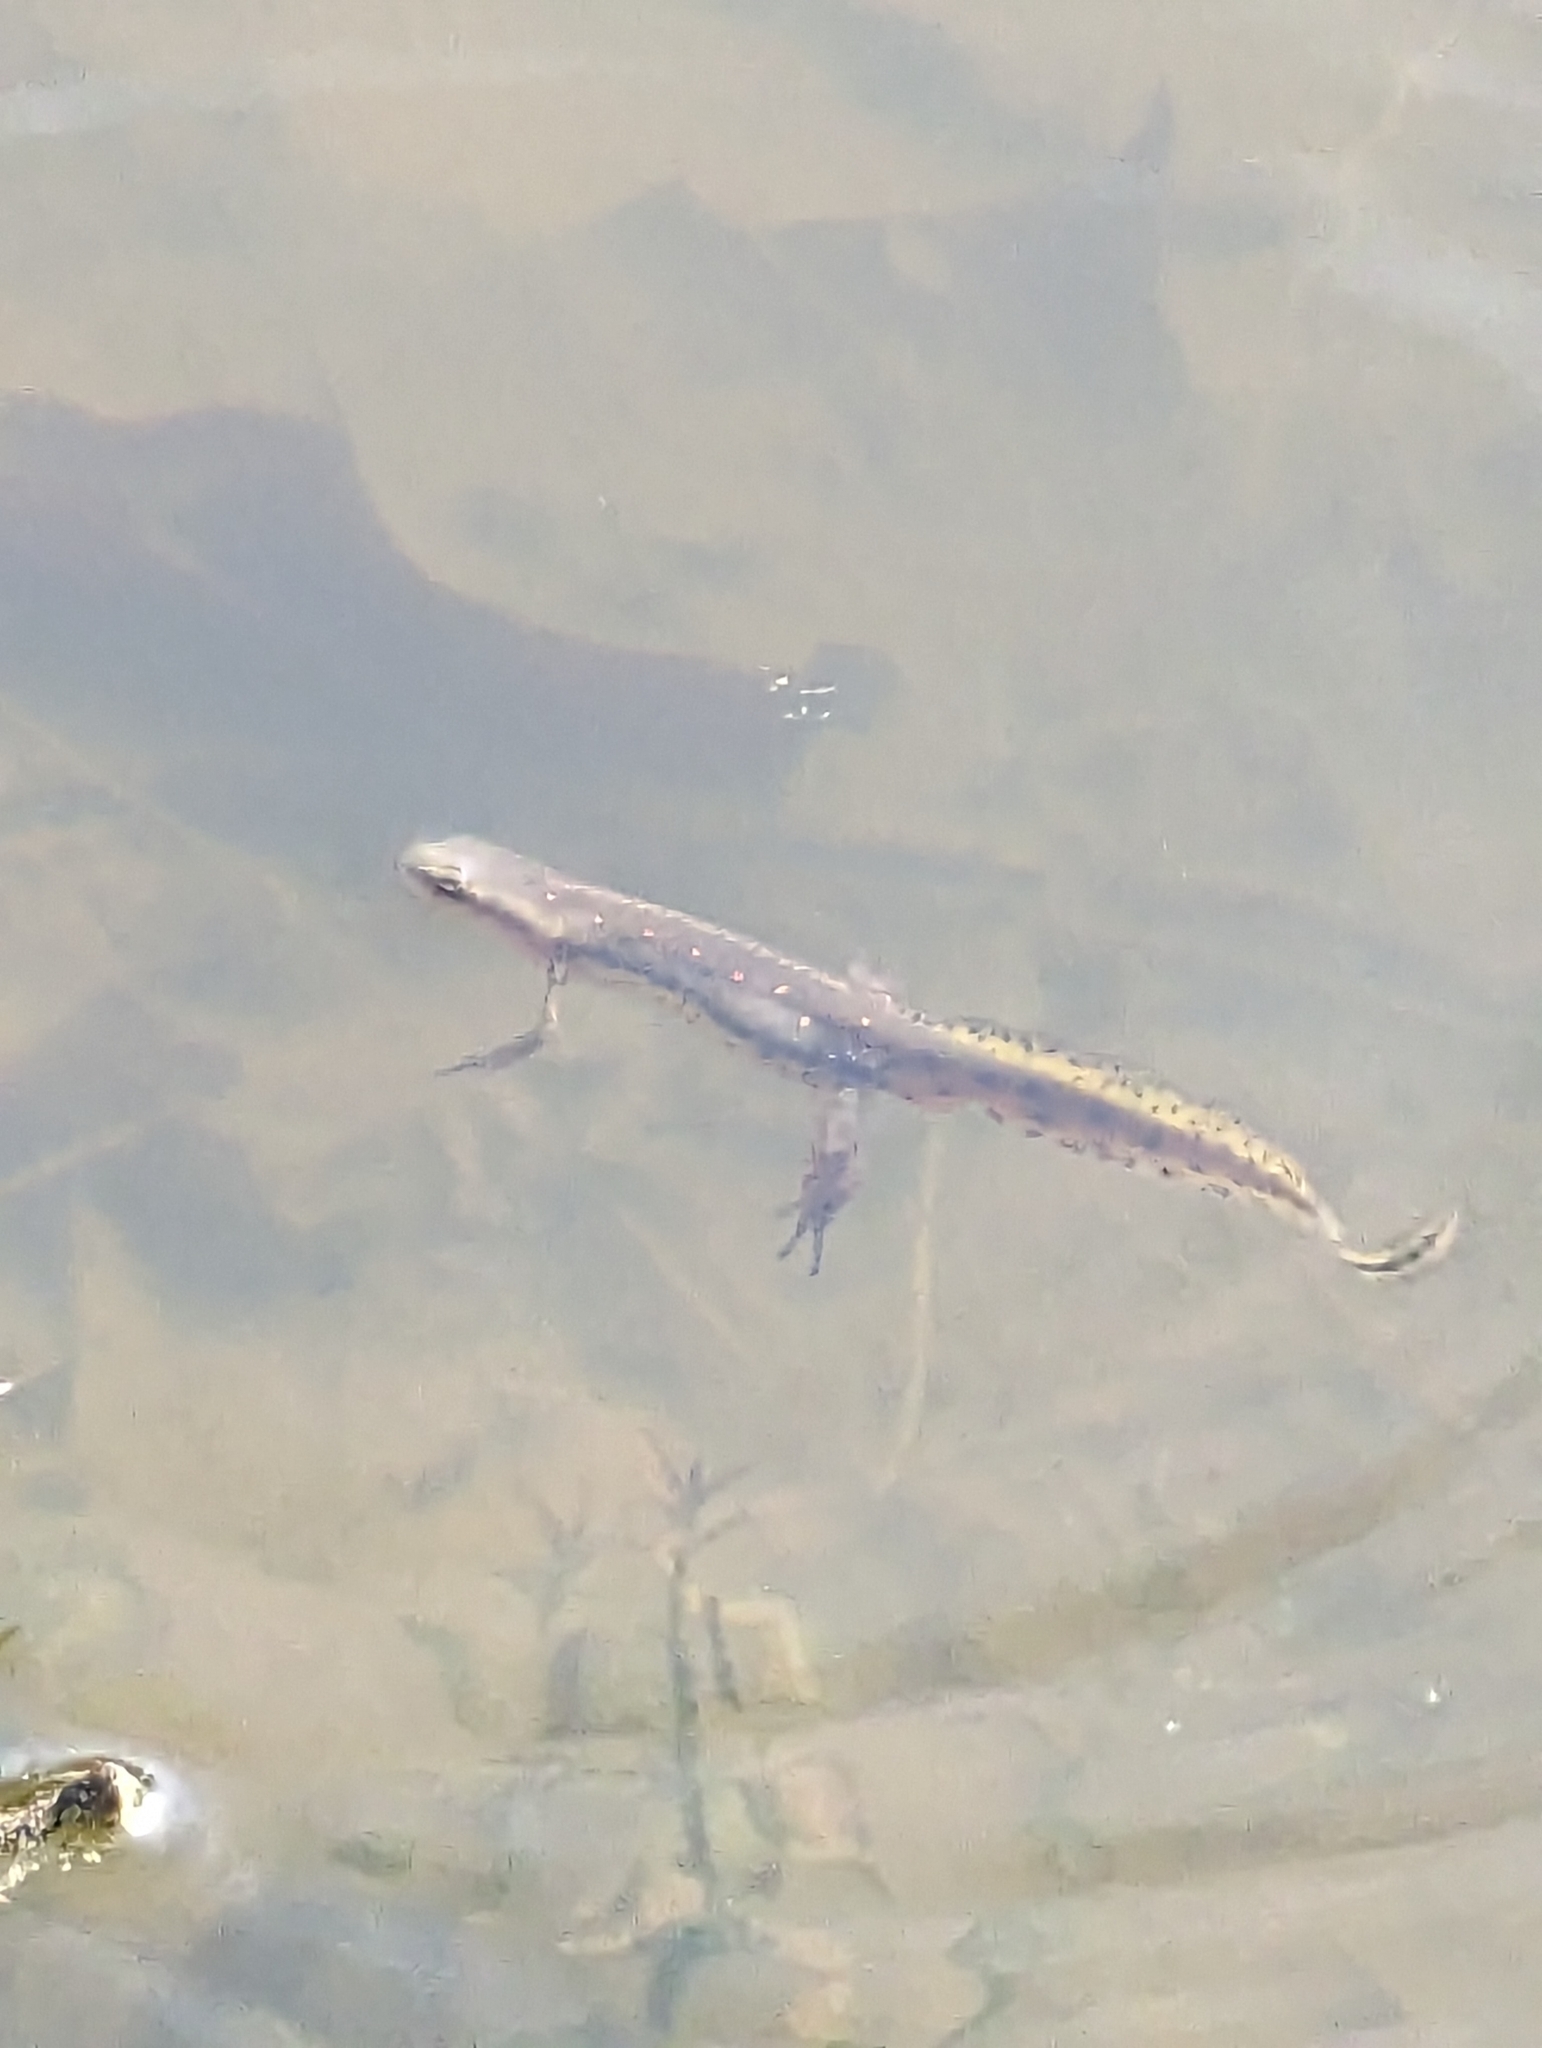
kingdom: Animalia
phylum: Chordata
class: Amphibia
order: Caudata
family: Salamandridae
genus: Notophthalmus
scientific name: Notophthalmus viridescens
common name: Eastern newt
